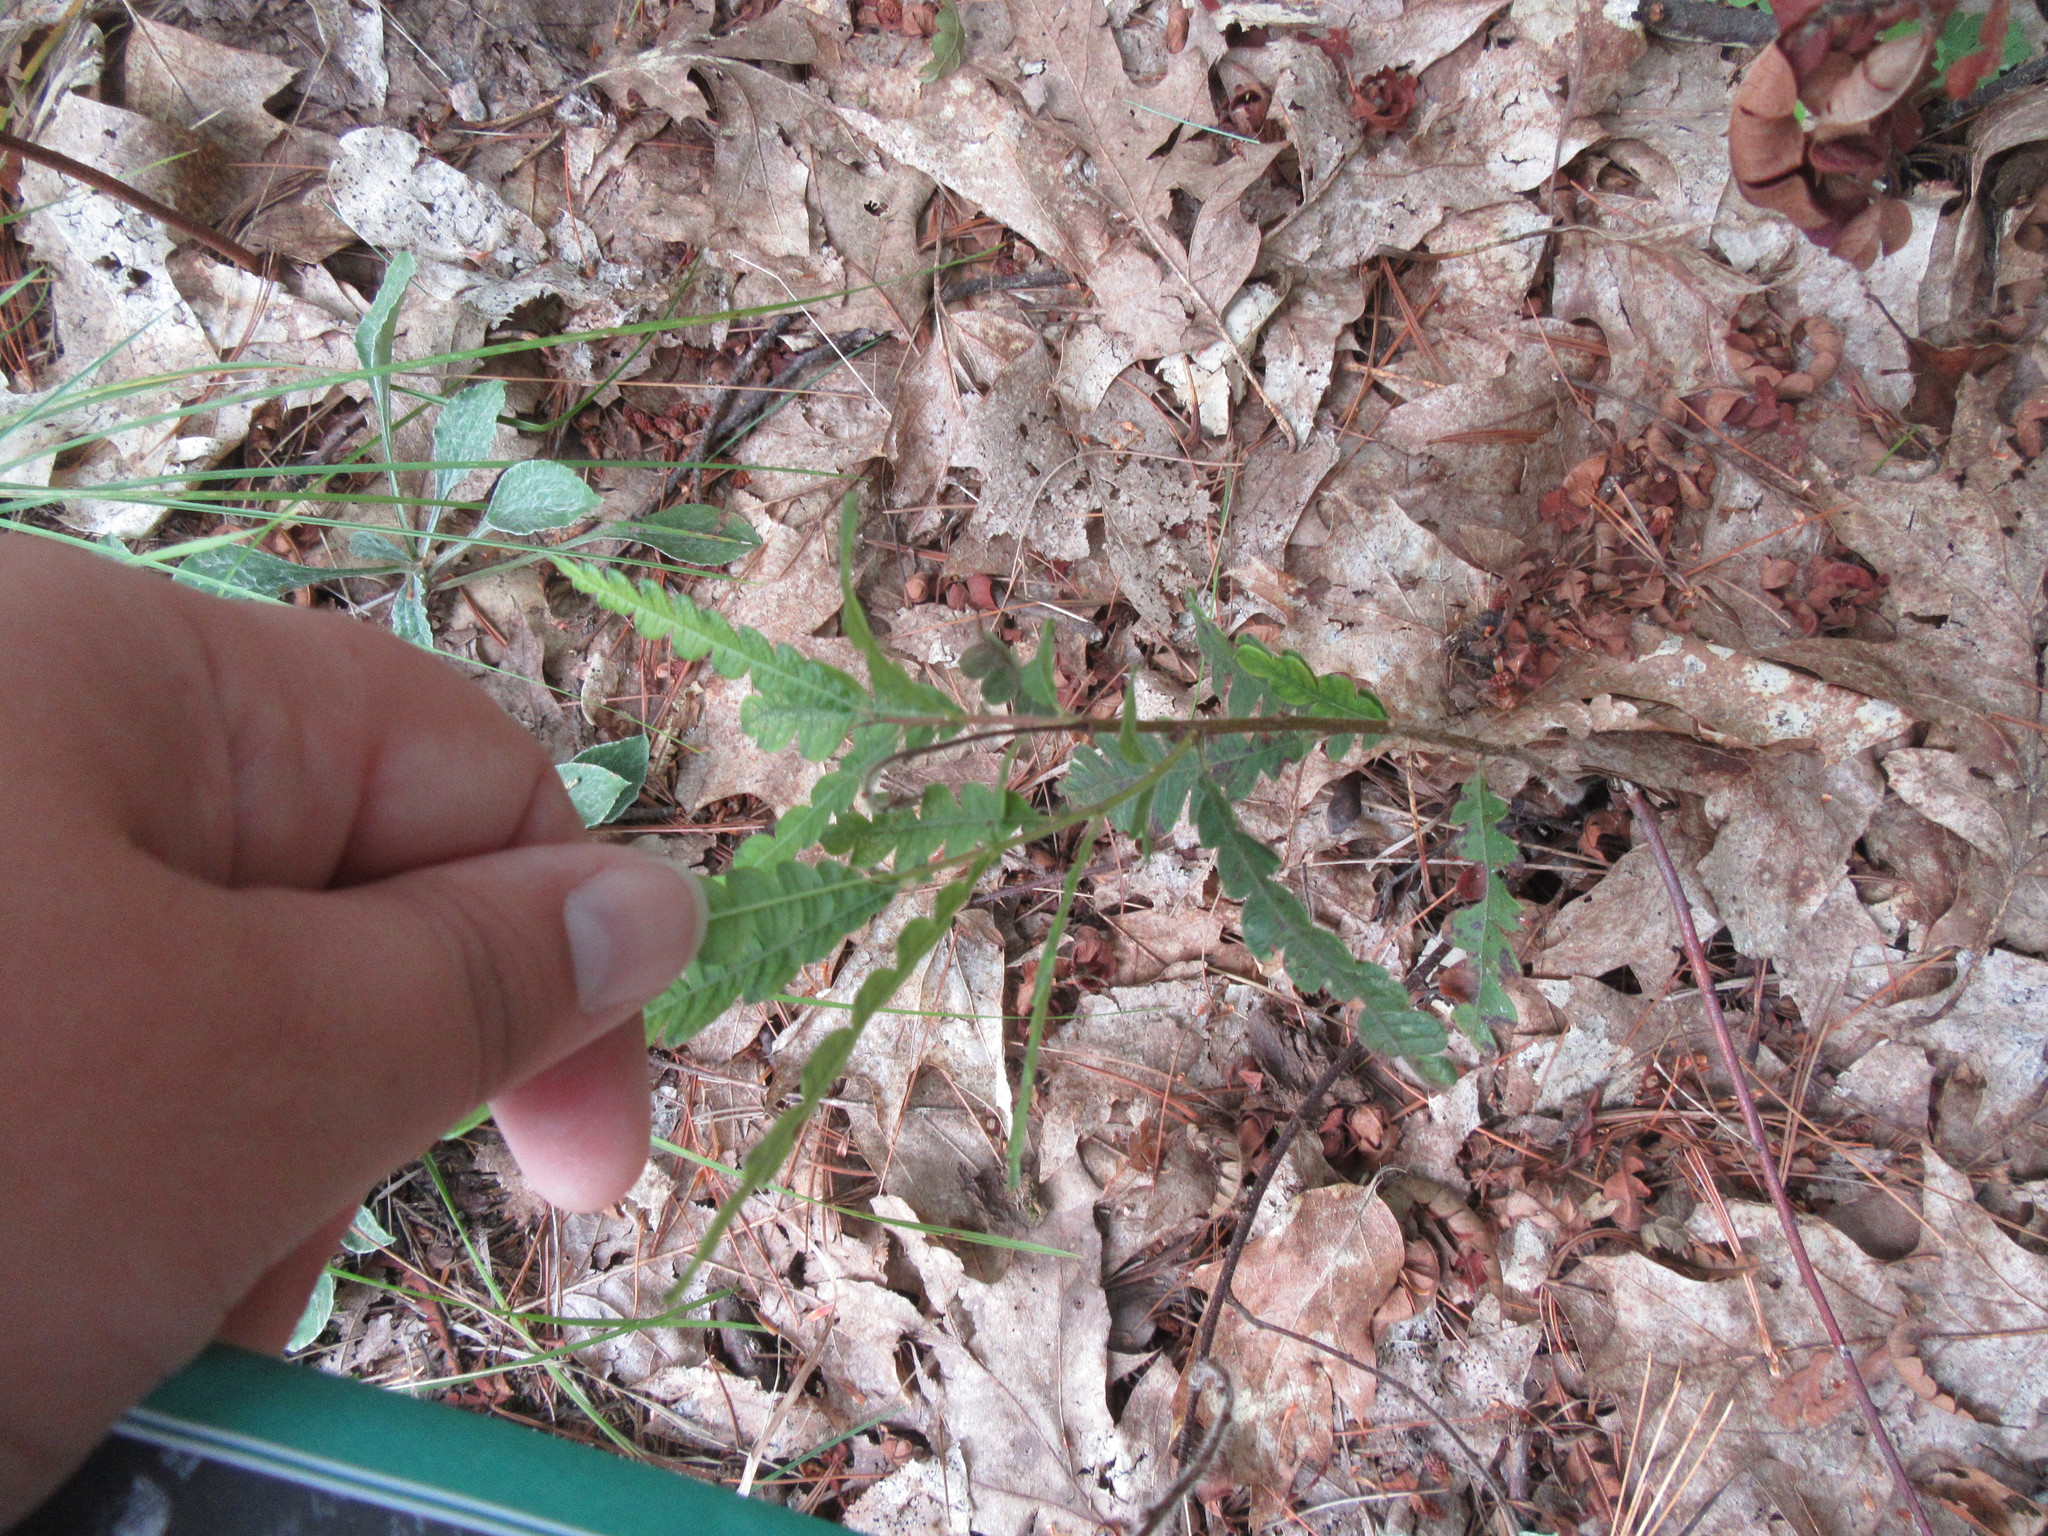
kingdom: Plantae
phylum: Tracheophyta
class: Magnoliopsida
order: Fagales
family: Myricaceae
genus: Comptonia
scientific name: Comptonia peregrina
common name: Sweet-fern
